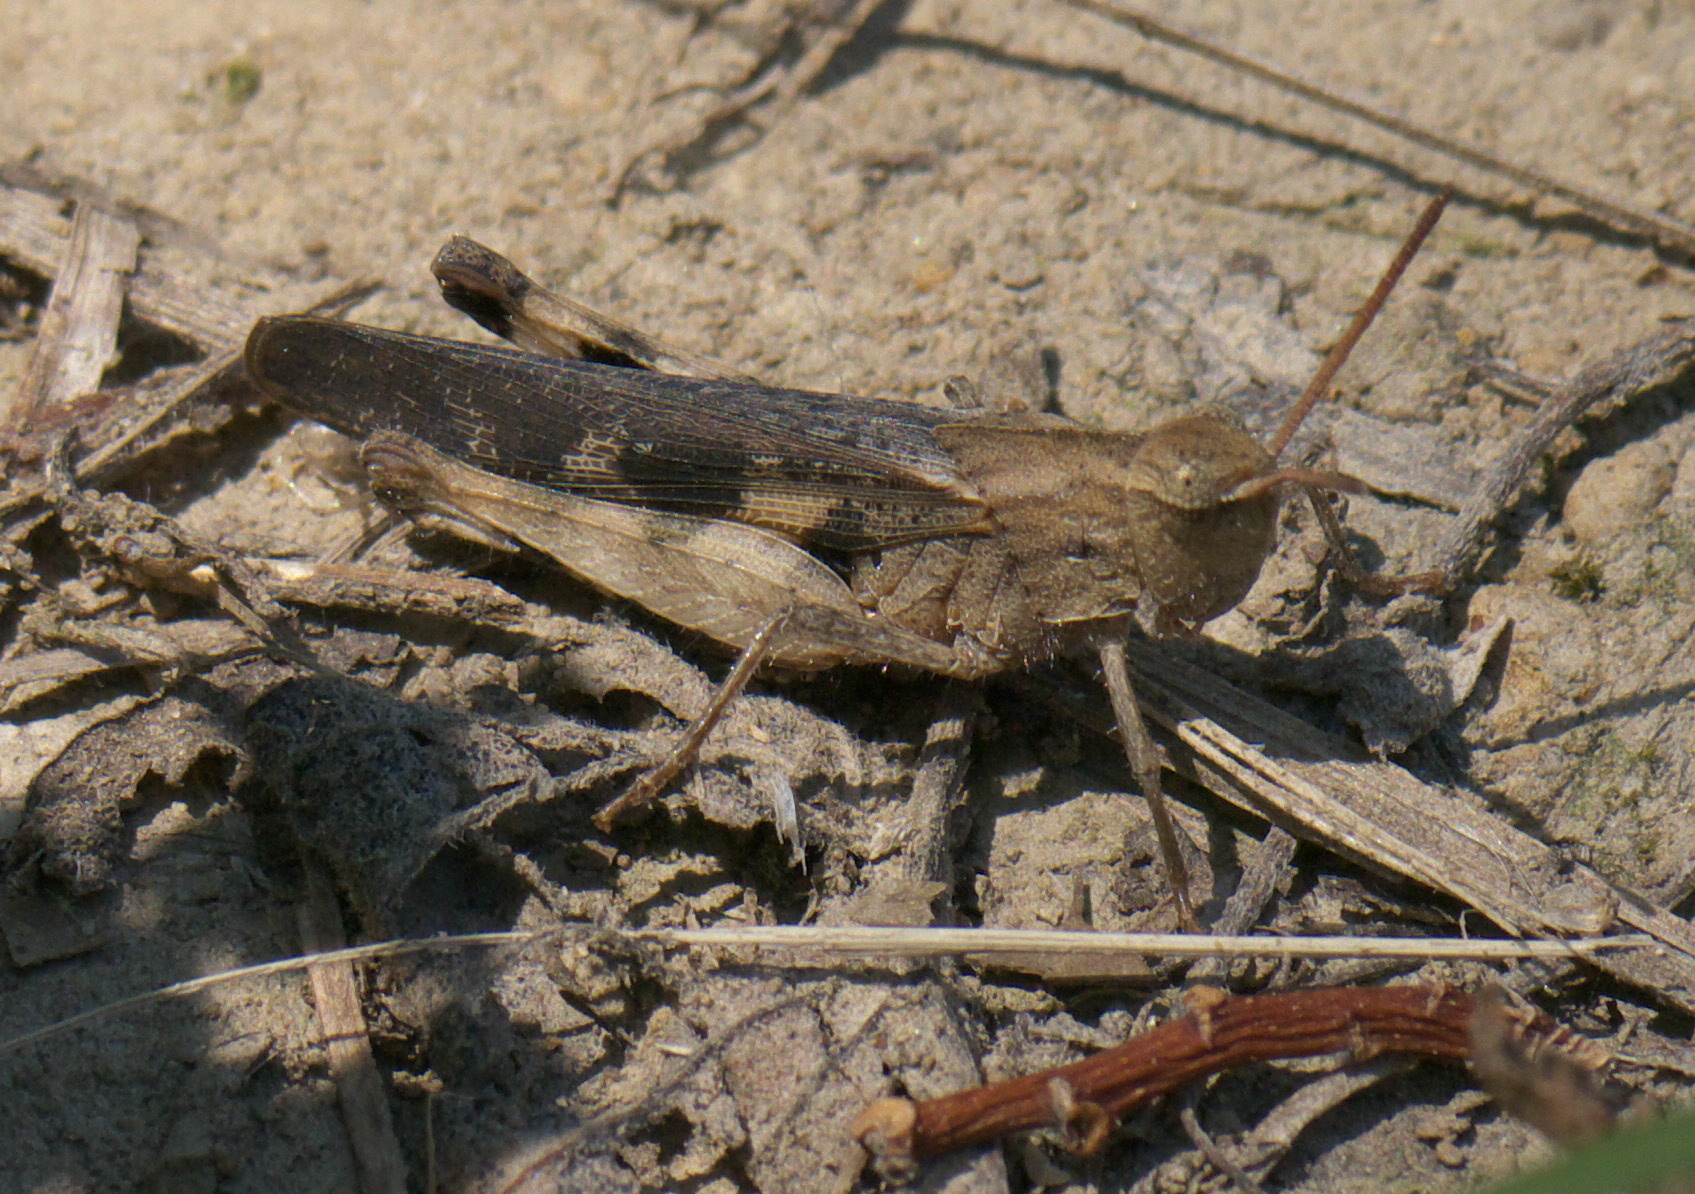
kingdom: Animalia
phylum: Arthropoda
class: Insecta
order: Orthoptera
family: Acrididae
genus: Chortophaga
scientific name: Chortophaga viridifasciata
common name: Green-striped grasshopper
